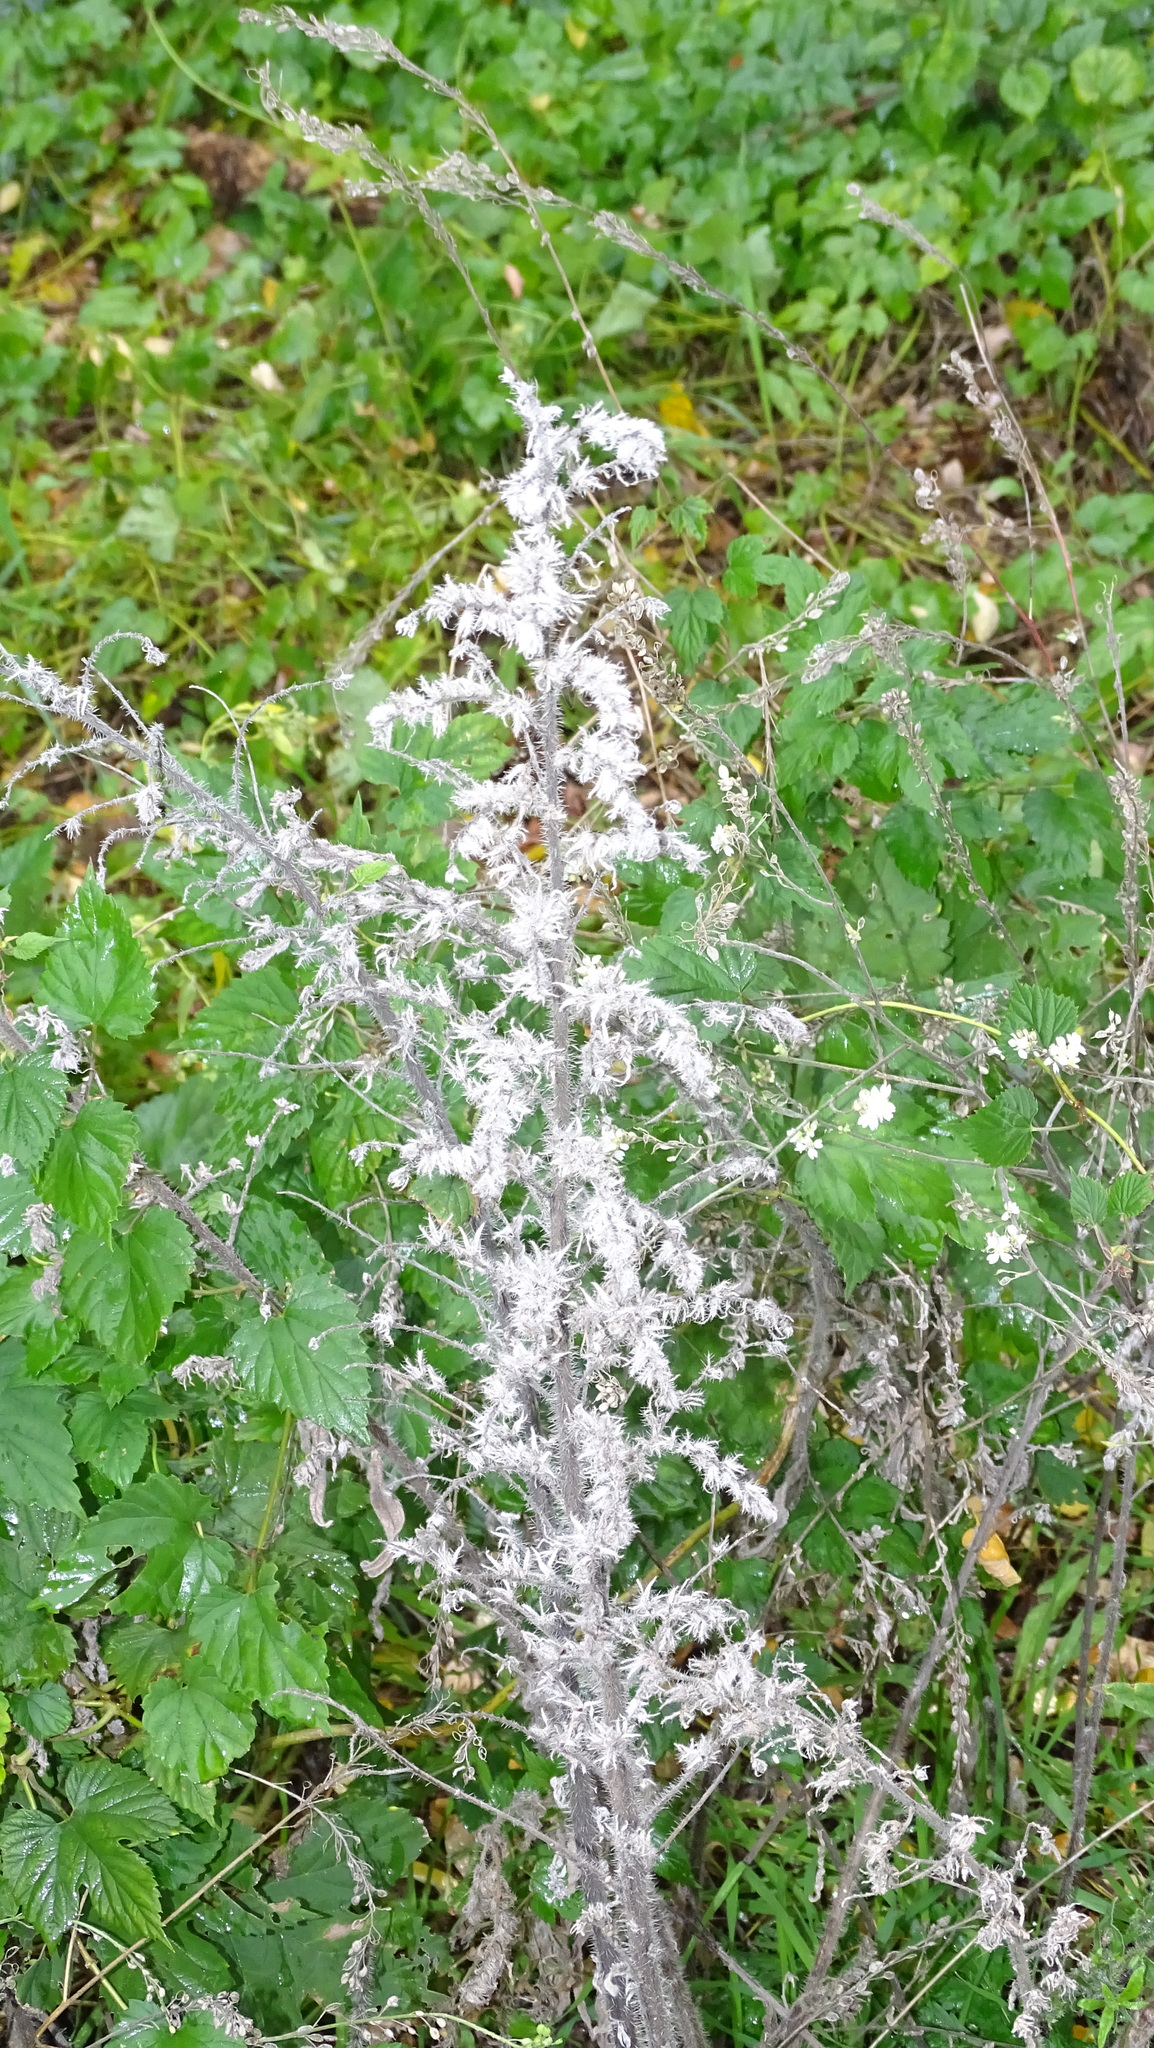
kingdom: Plantae
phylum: Tracheophyta
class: Magnoliopsida
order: Boraginales
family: Boraginaceae
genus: Echium
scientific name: Echium vulgare
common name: Common viper's bugloss
